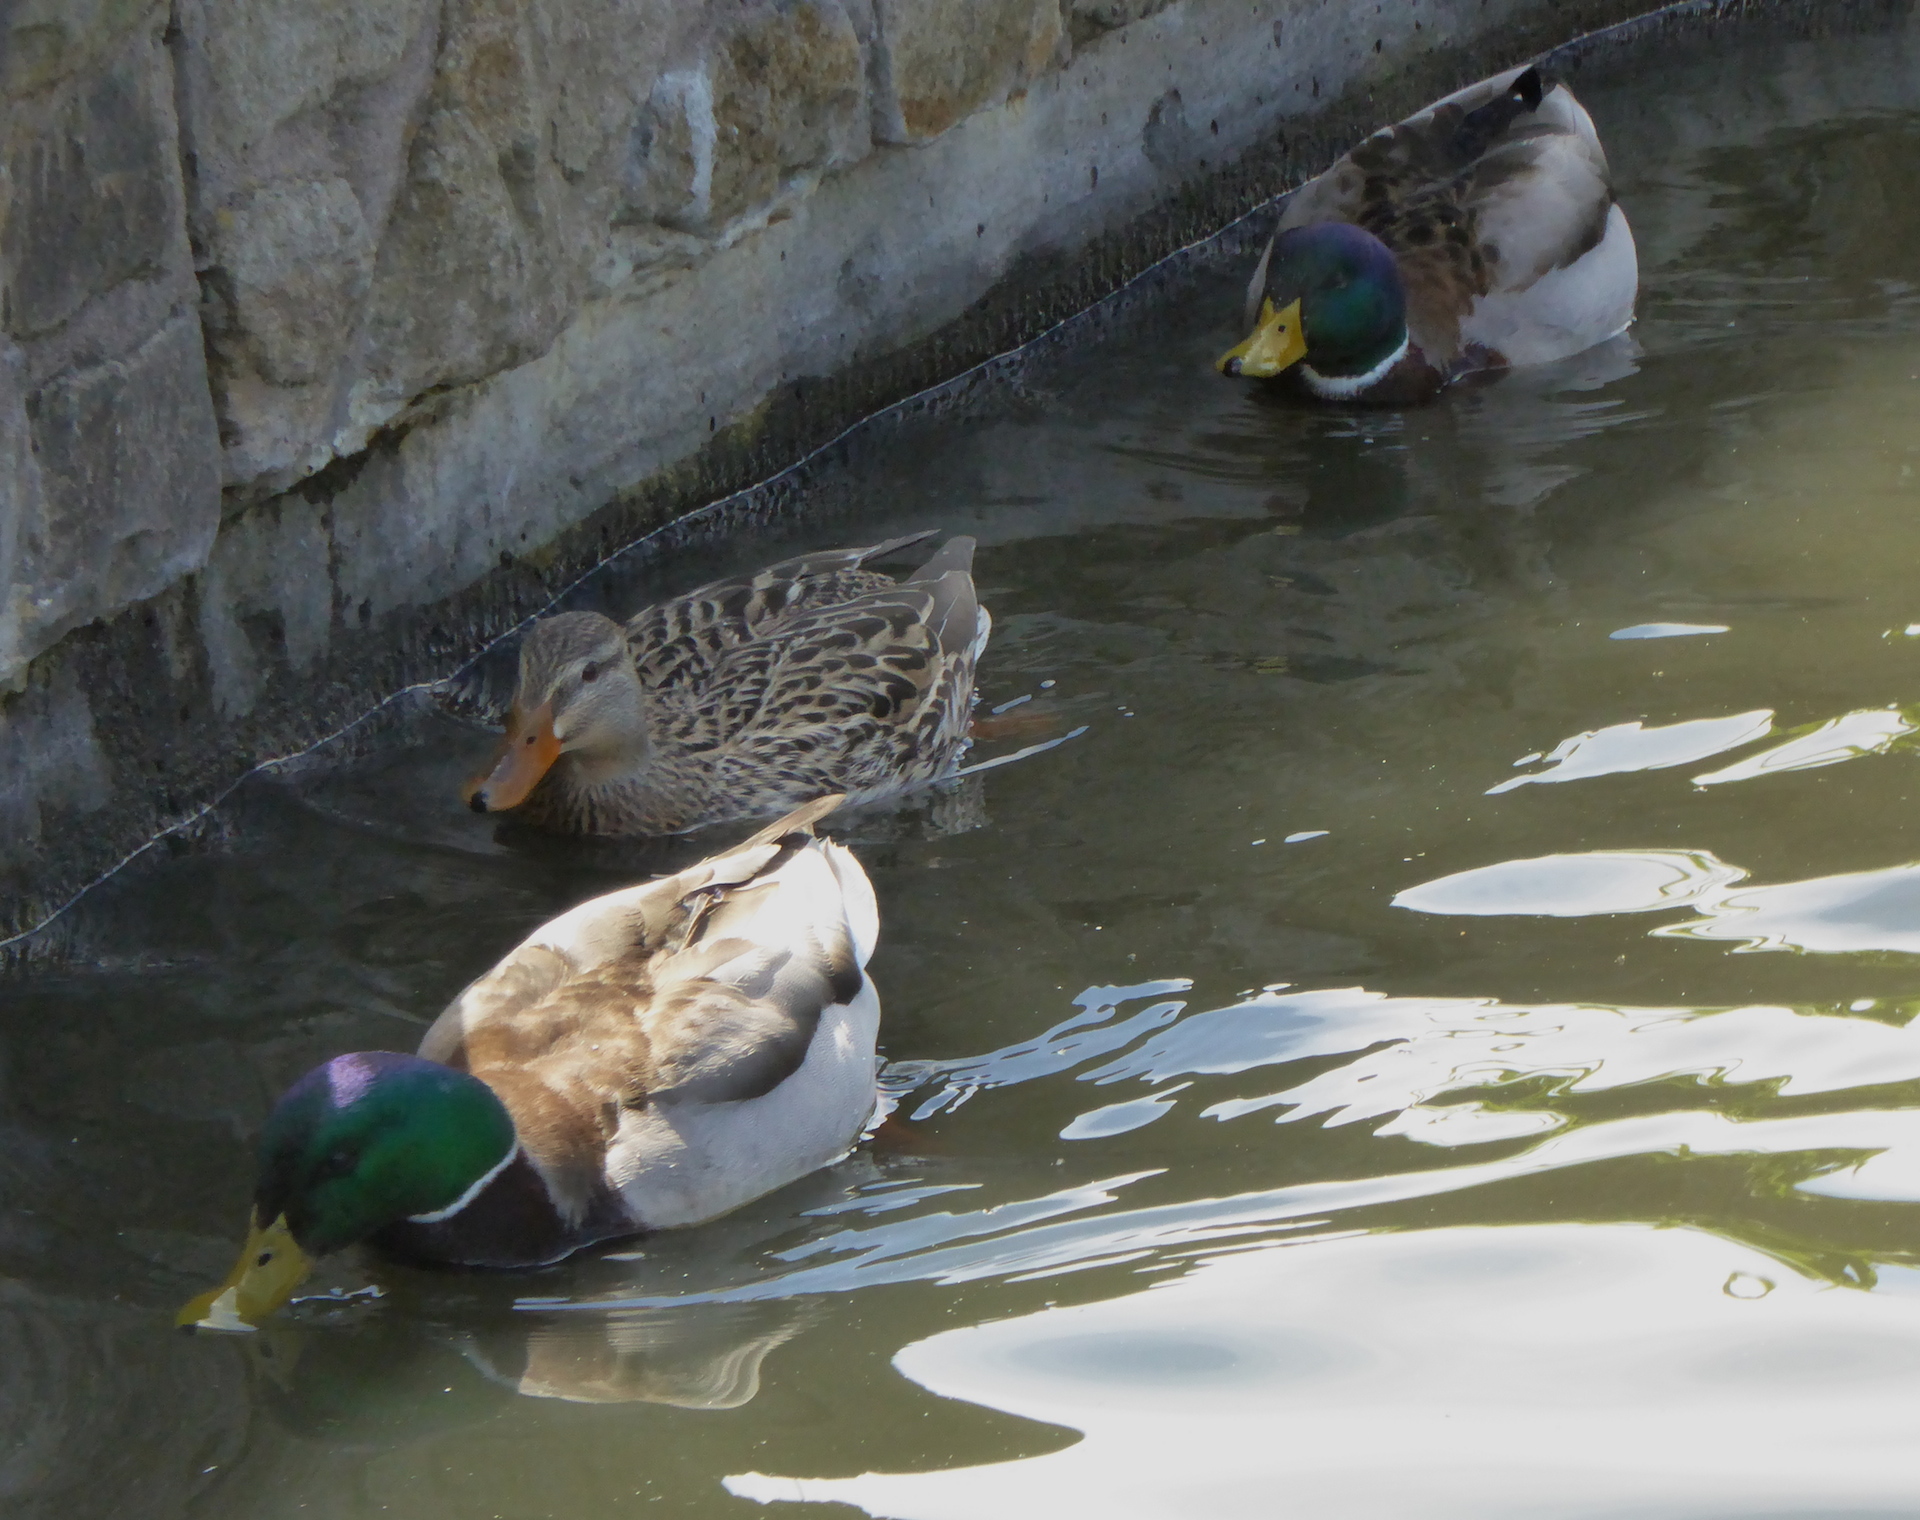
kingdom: Animalia
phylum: Chordata
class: Aves
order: Anseriformes
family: Anatidae
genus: Anas
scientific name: Anas platyrhynchos
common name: Mallard
